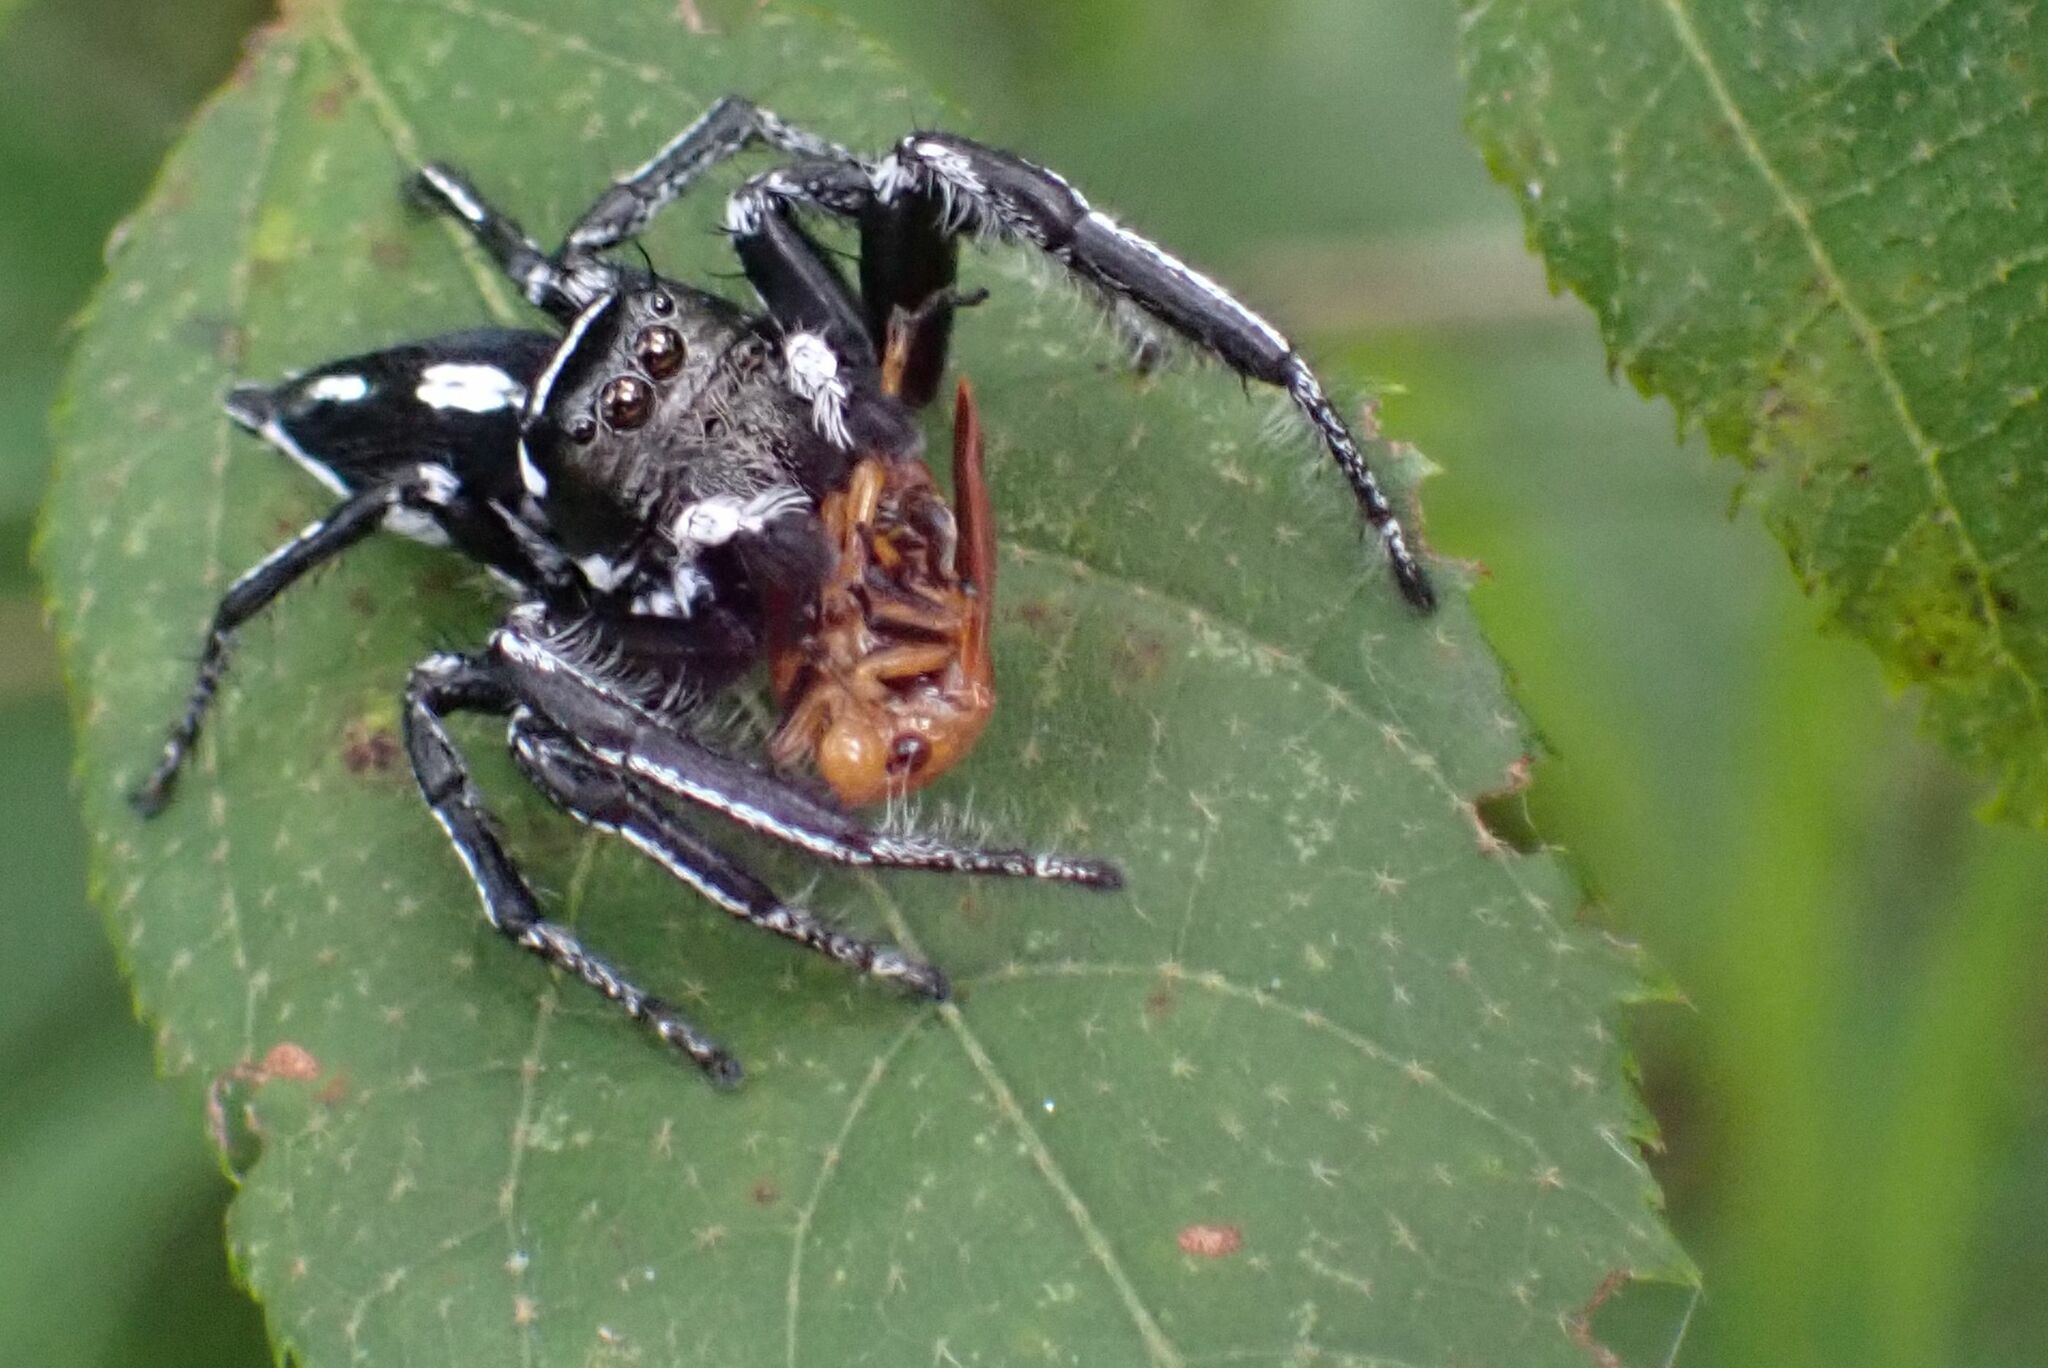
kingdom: Animalia
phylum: Arthropoda
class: Arachnida
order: Araneae
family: Salticidae
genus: Hyllus
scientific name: Hyllus argyrotoxus
